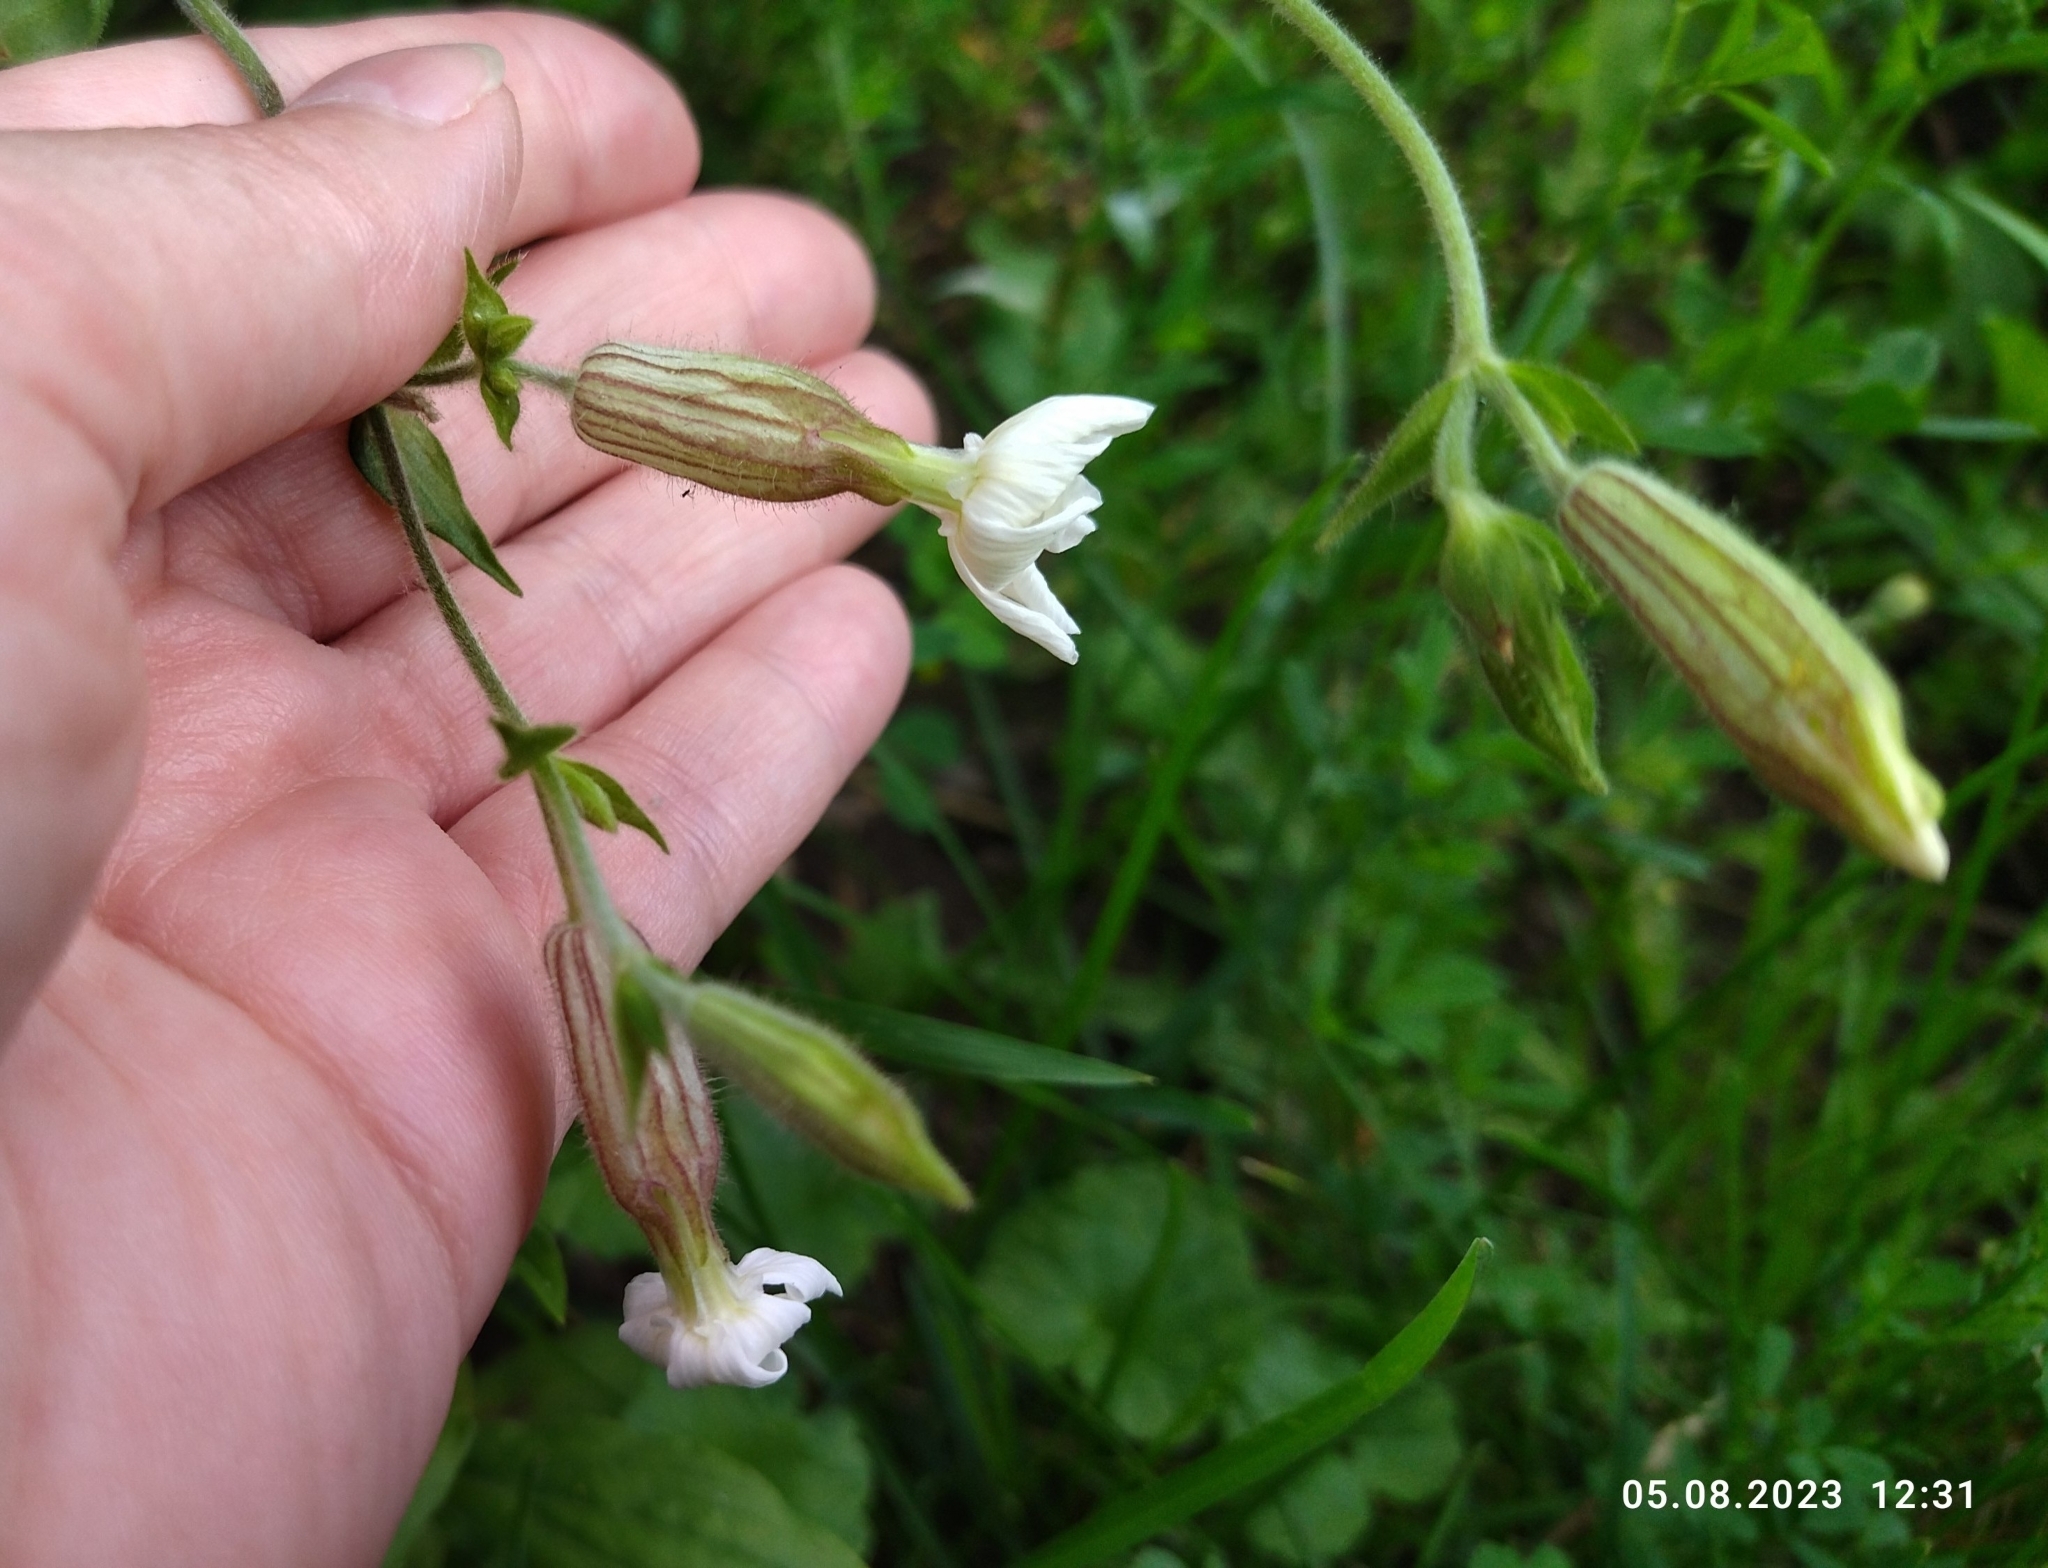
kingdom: Plantae
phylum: Tracheophyta
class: Magnoliopsida
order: Caryophyllales
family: Caryophyllaceae
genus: Silene
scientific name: Silene latifolia
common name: White campion
